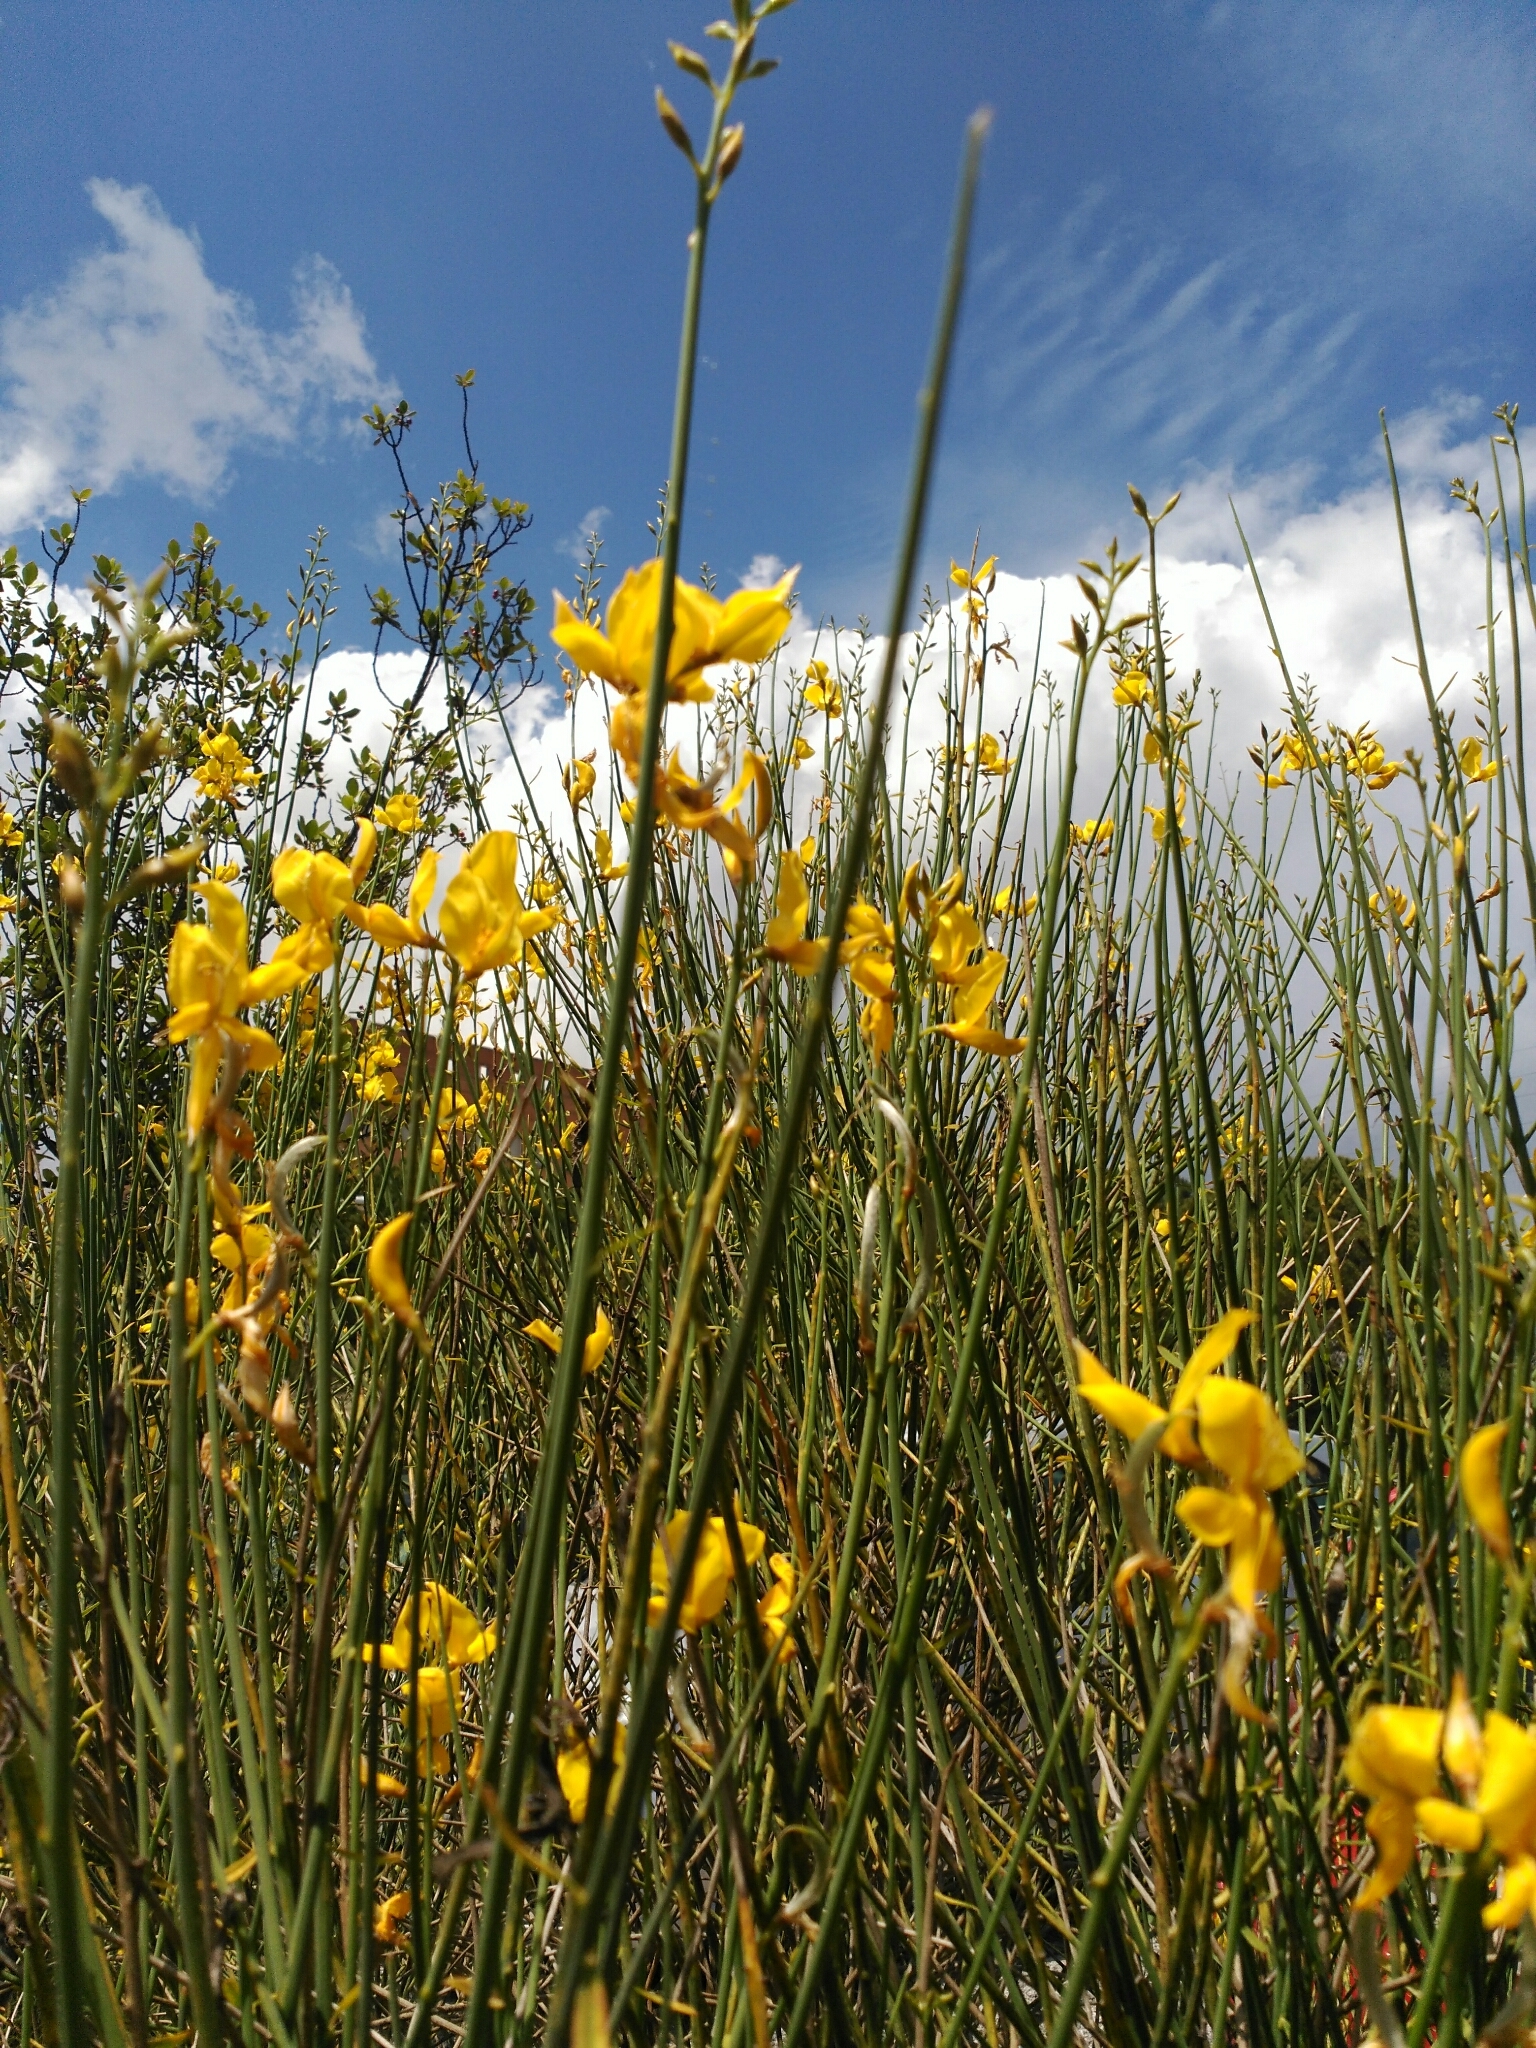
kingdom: Plantae
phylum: Tracheophyta
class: Magnoliopsida
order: Fabales
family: Fabaceae
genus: Spartium
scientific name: Spartium junceum
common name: Spanish broom
